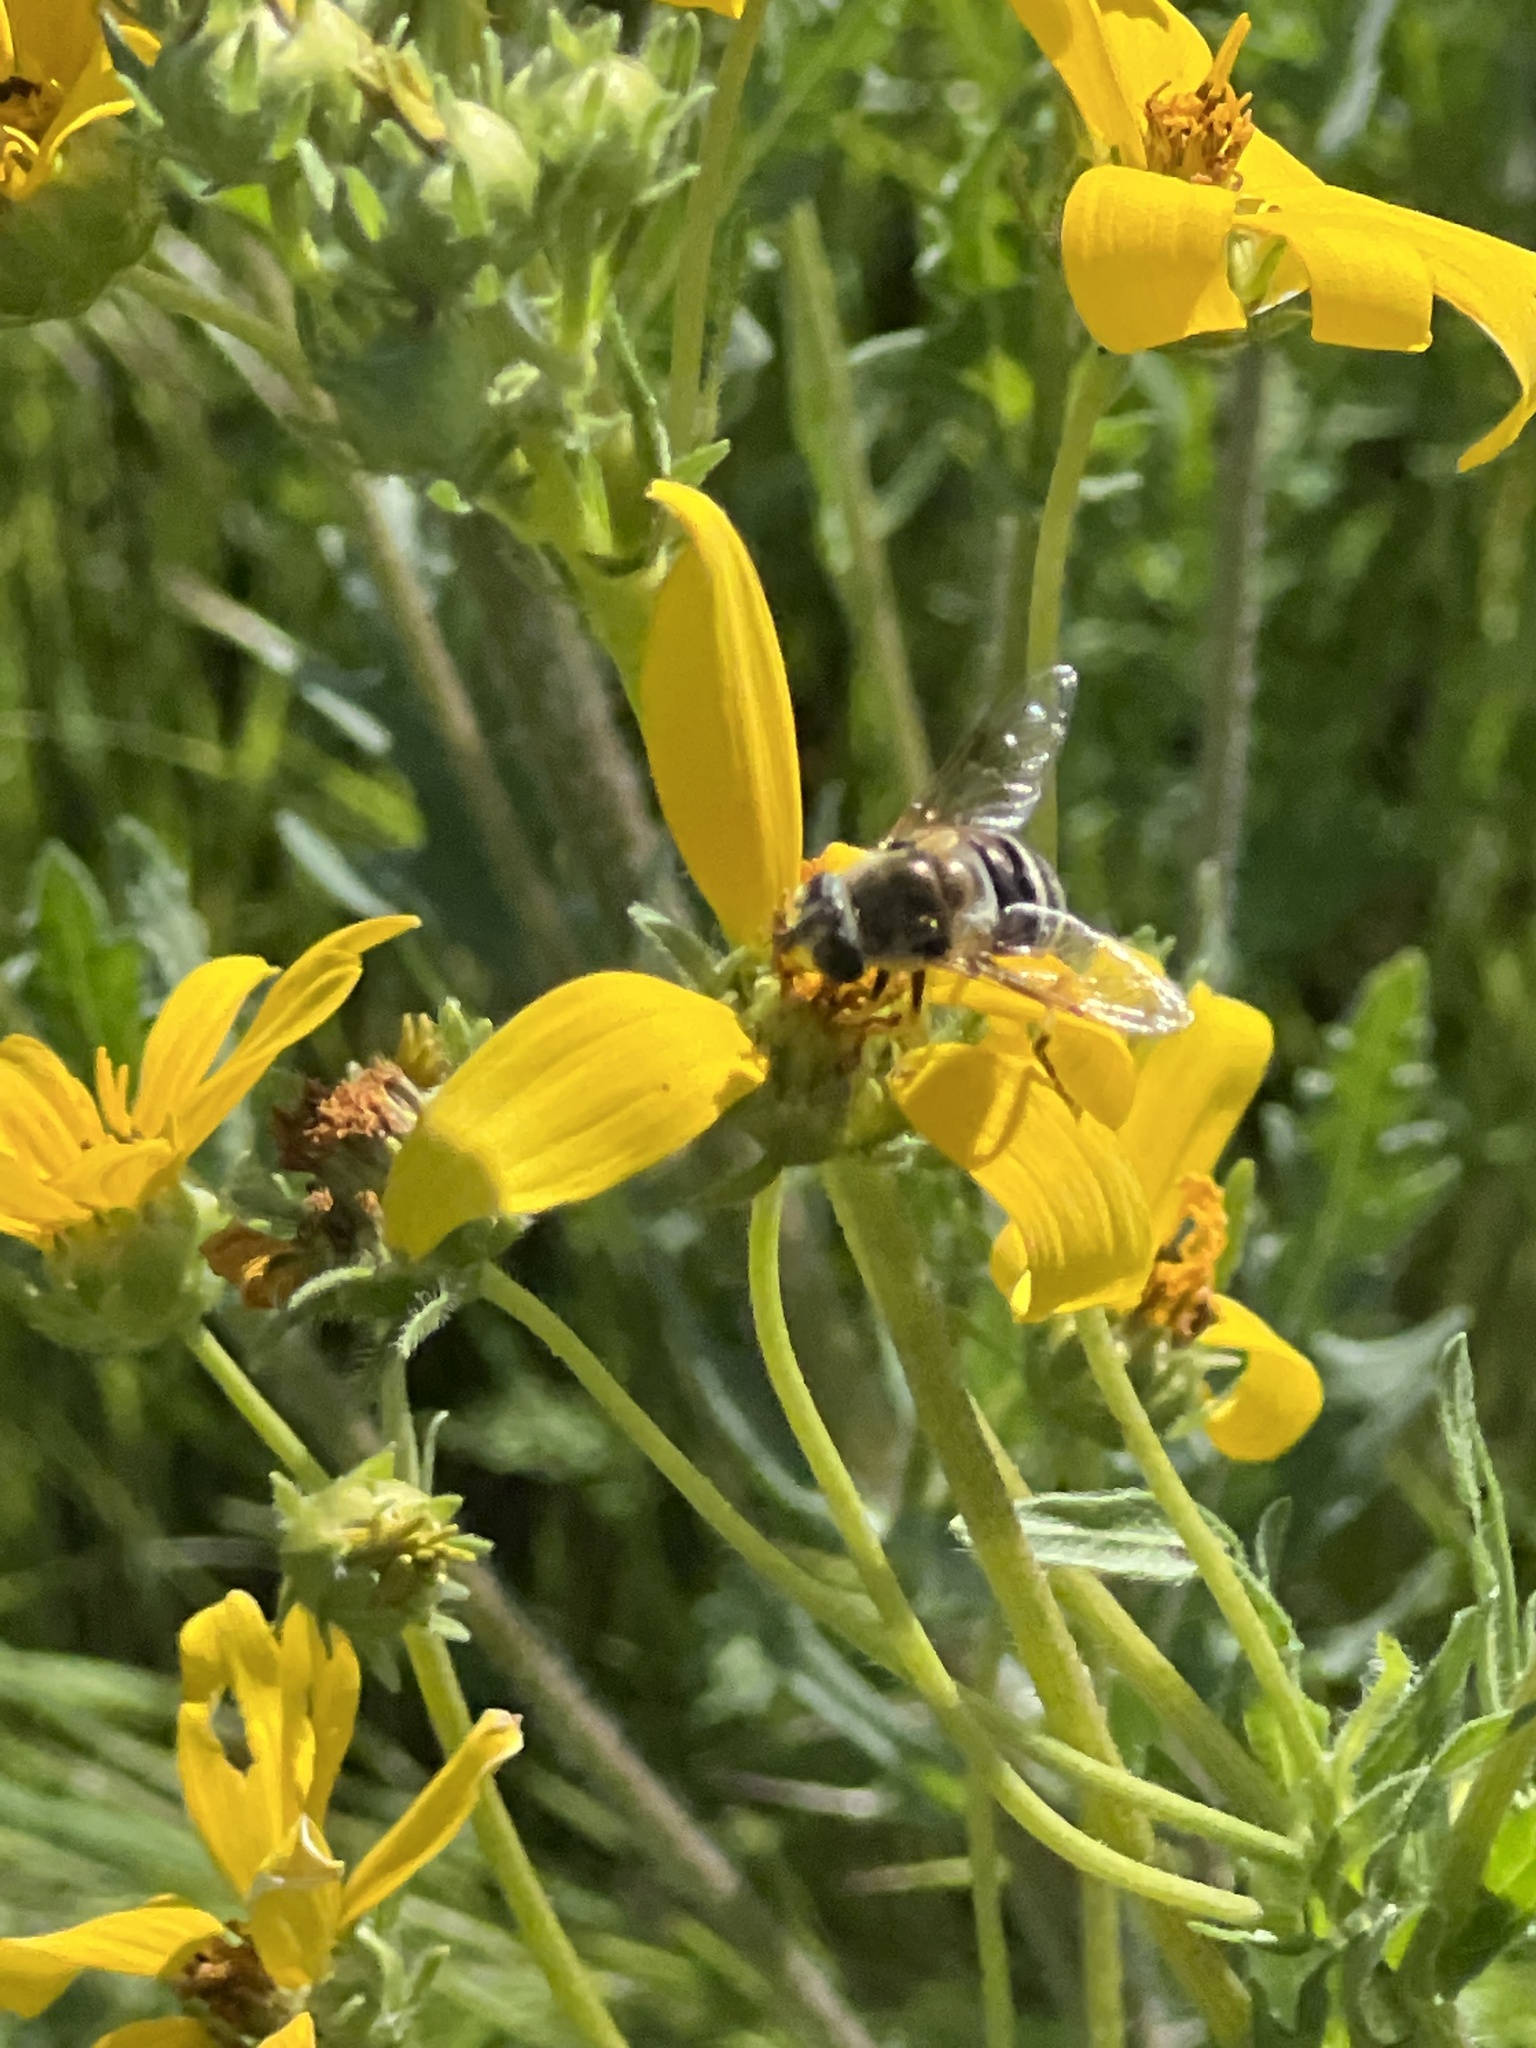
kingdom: Animalia
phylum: Arthropoda
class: Insecta
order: Diptera
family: Syrphidae
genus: Eristalis
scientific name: Eristalis stipator
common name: Yellow-shouldered drone fly
